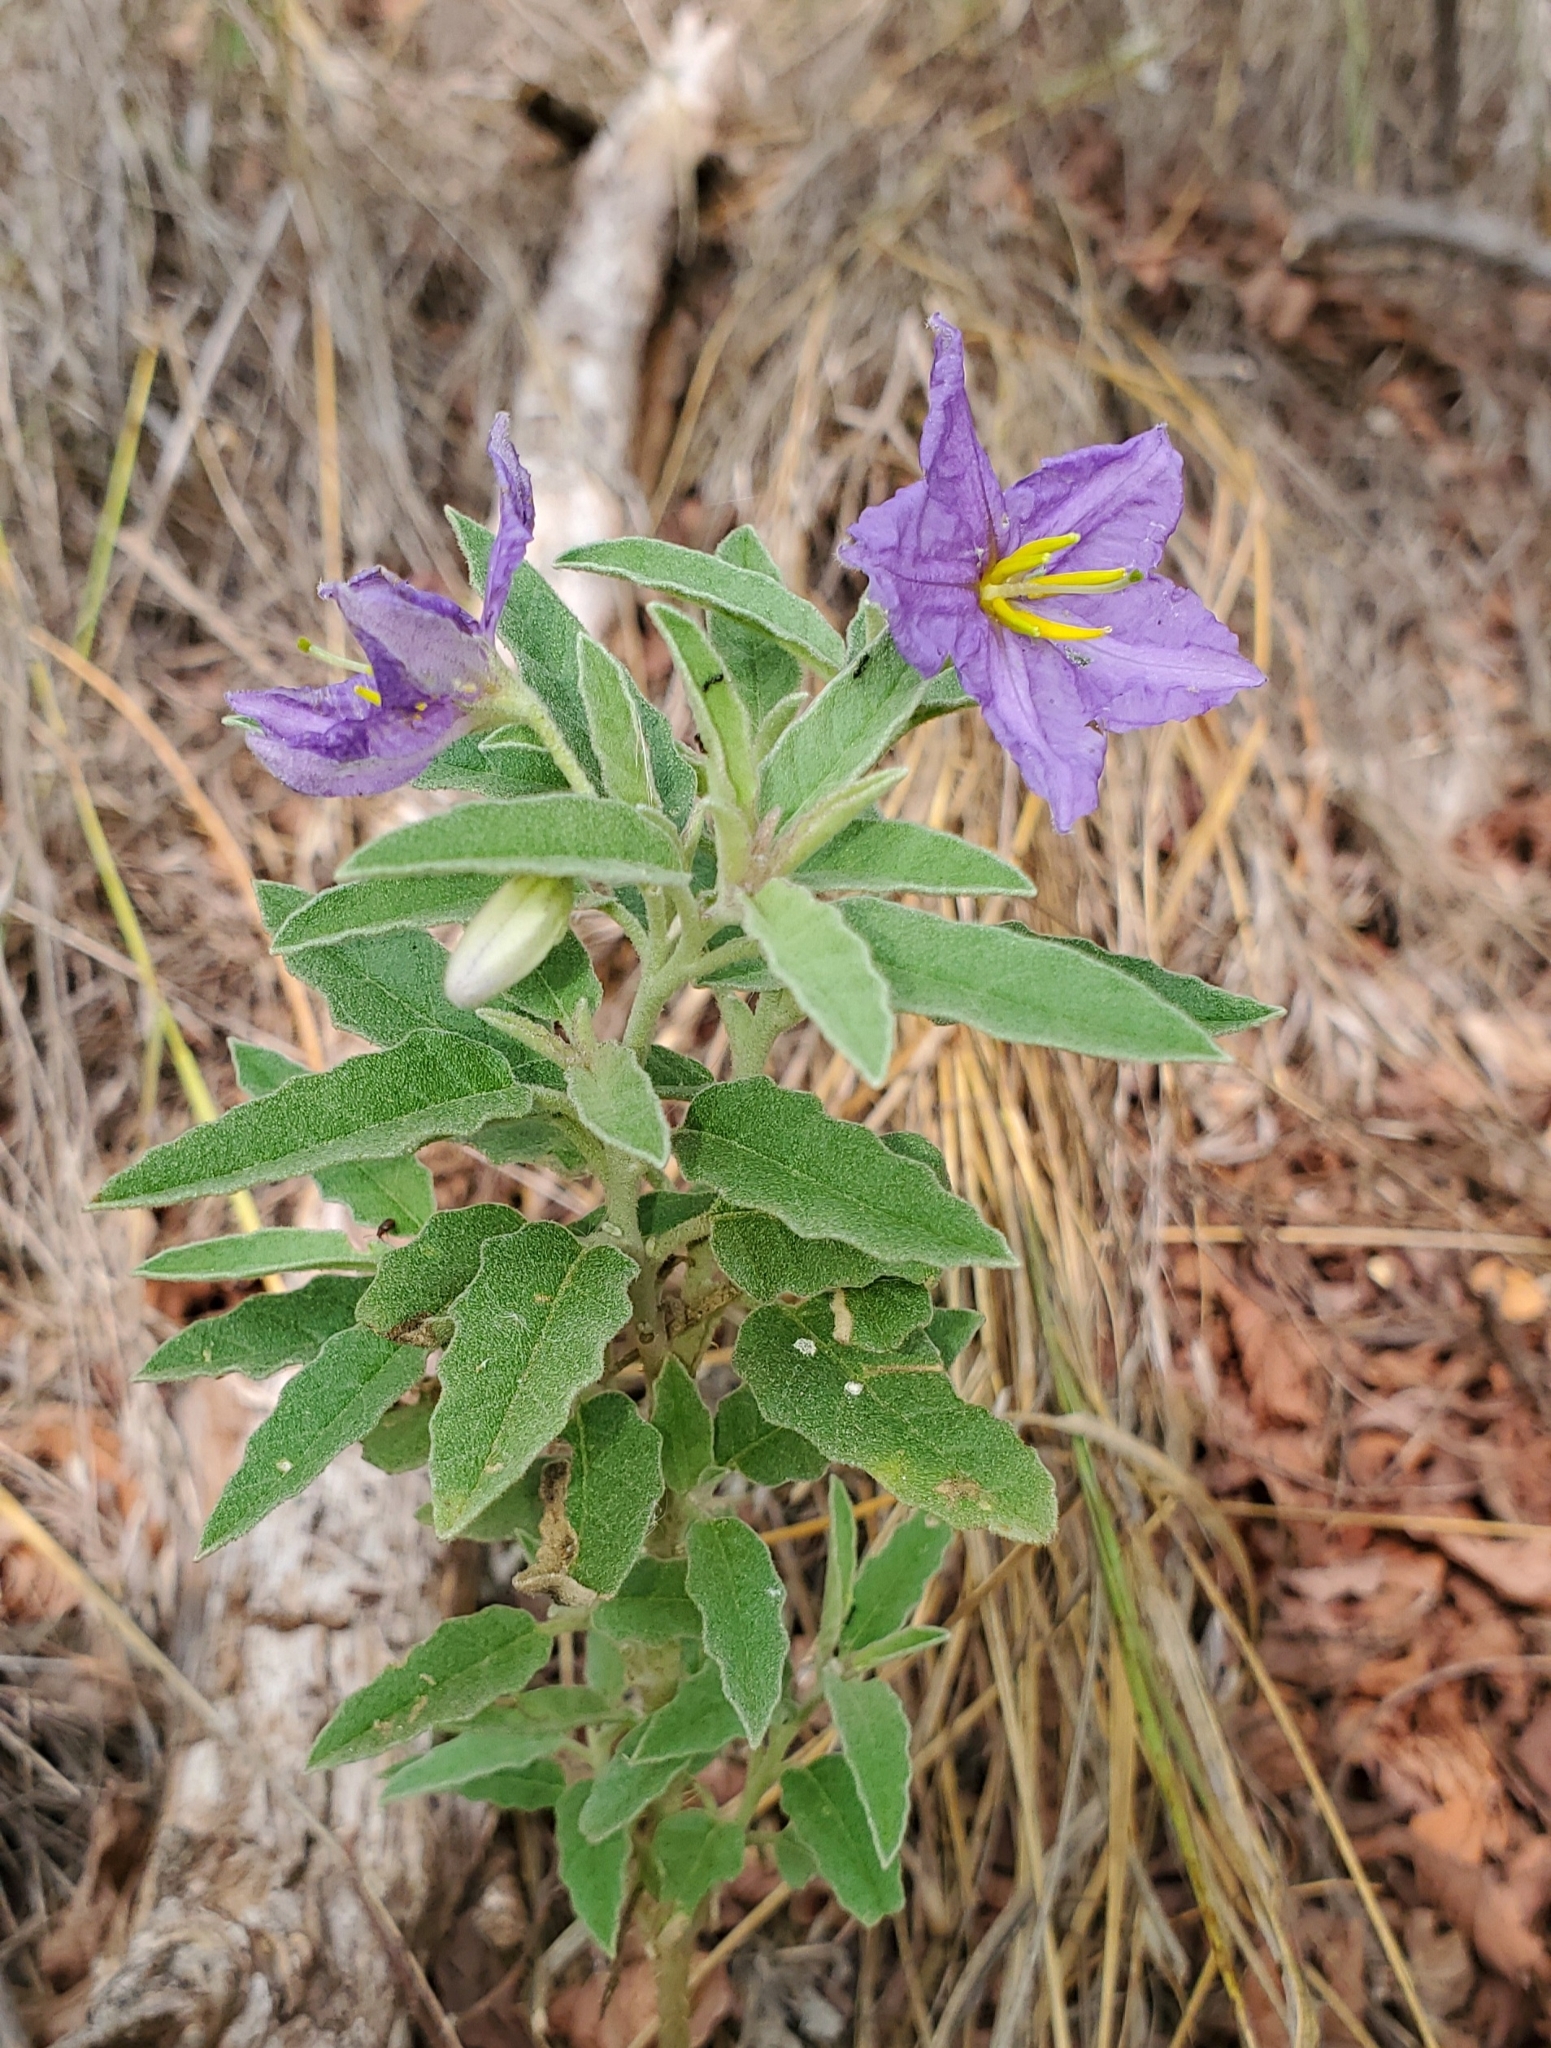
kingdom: Plantae
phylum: Tracheophyta
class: Magnoliopsida
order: Solanales
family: Solanaceae
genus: Solanum
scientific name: Solanum elaeagnifolium
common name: Silverleaf nightshade
